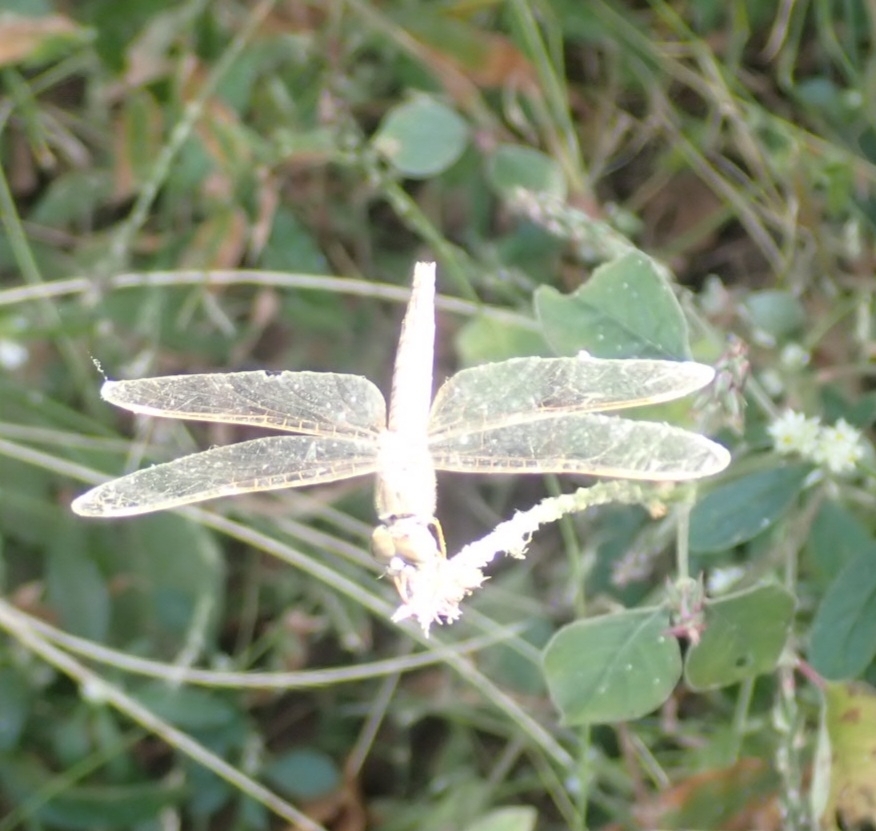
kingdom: Animalia
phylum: Arthropoda
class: Insecta
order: Odonata
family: Libellulidae
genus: Brachythemis
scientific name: Brachythemis contaminata
